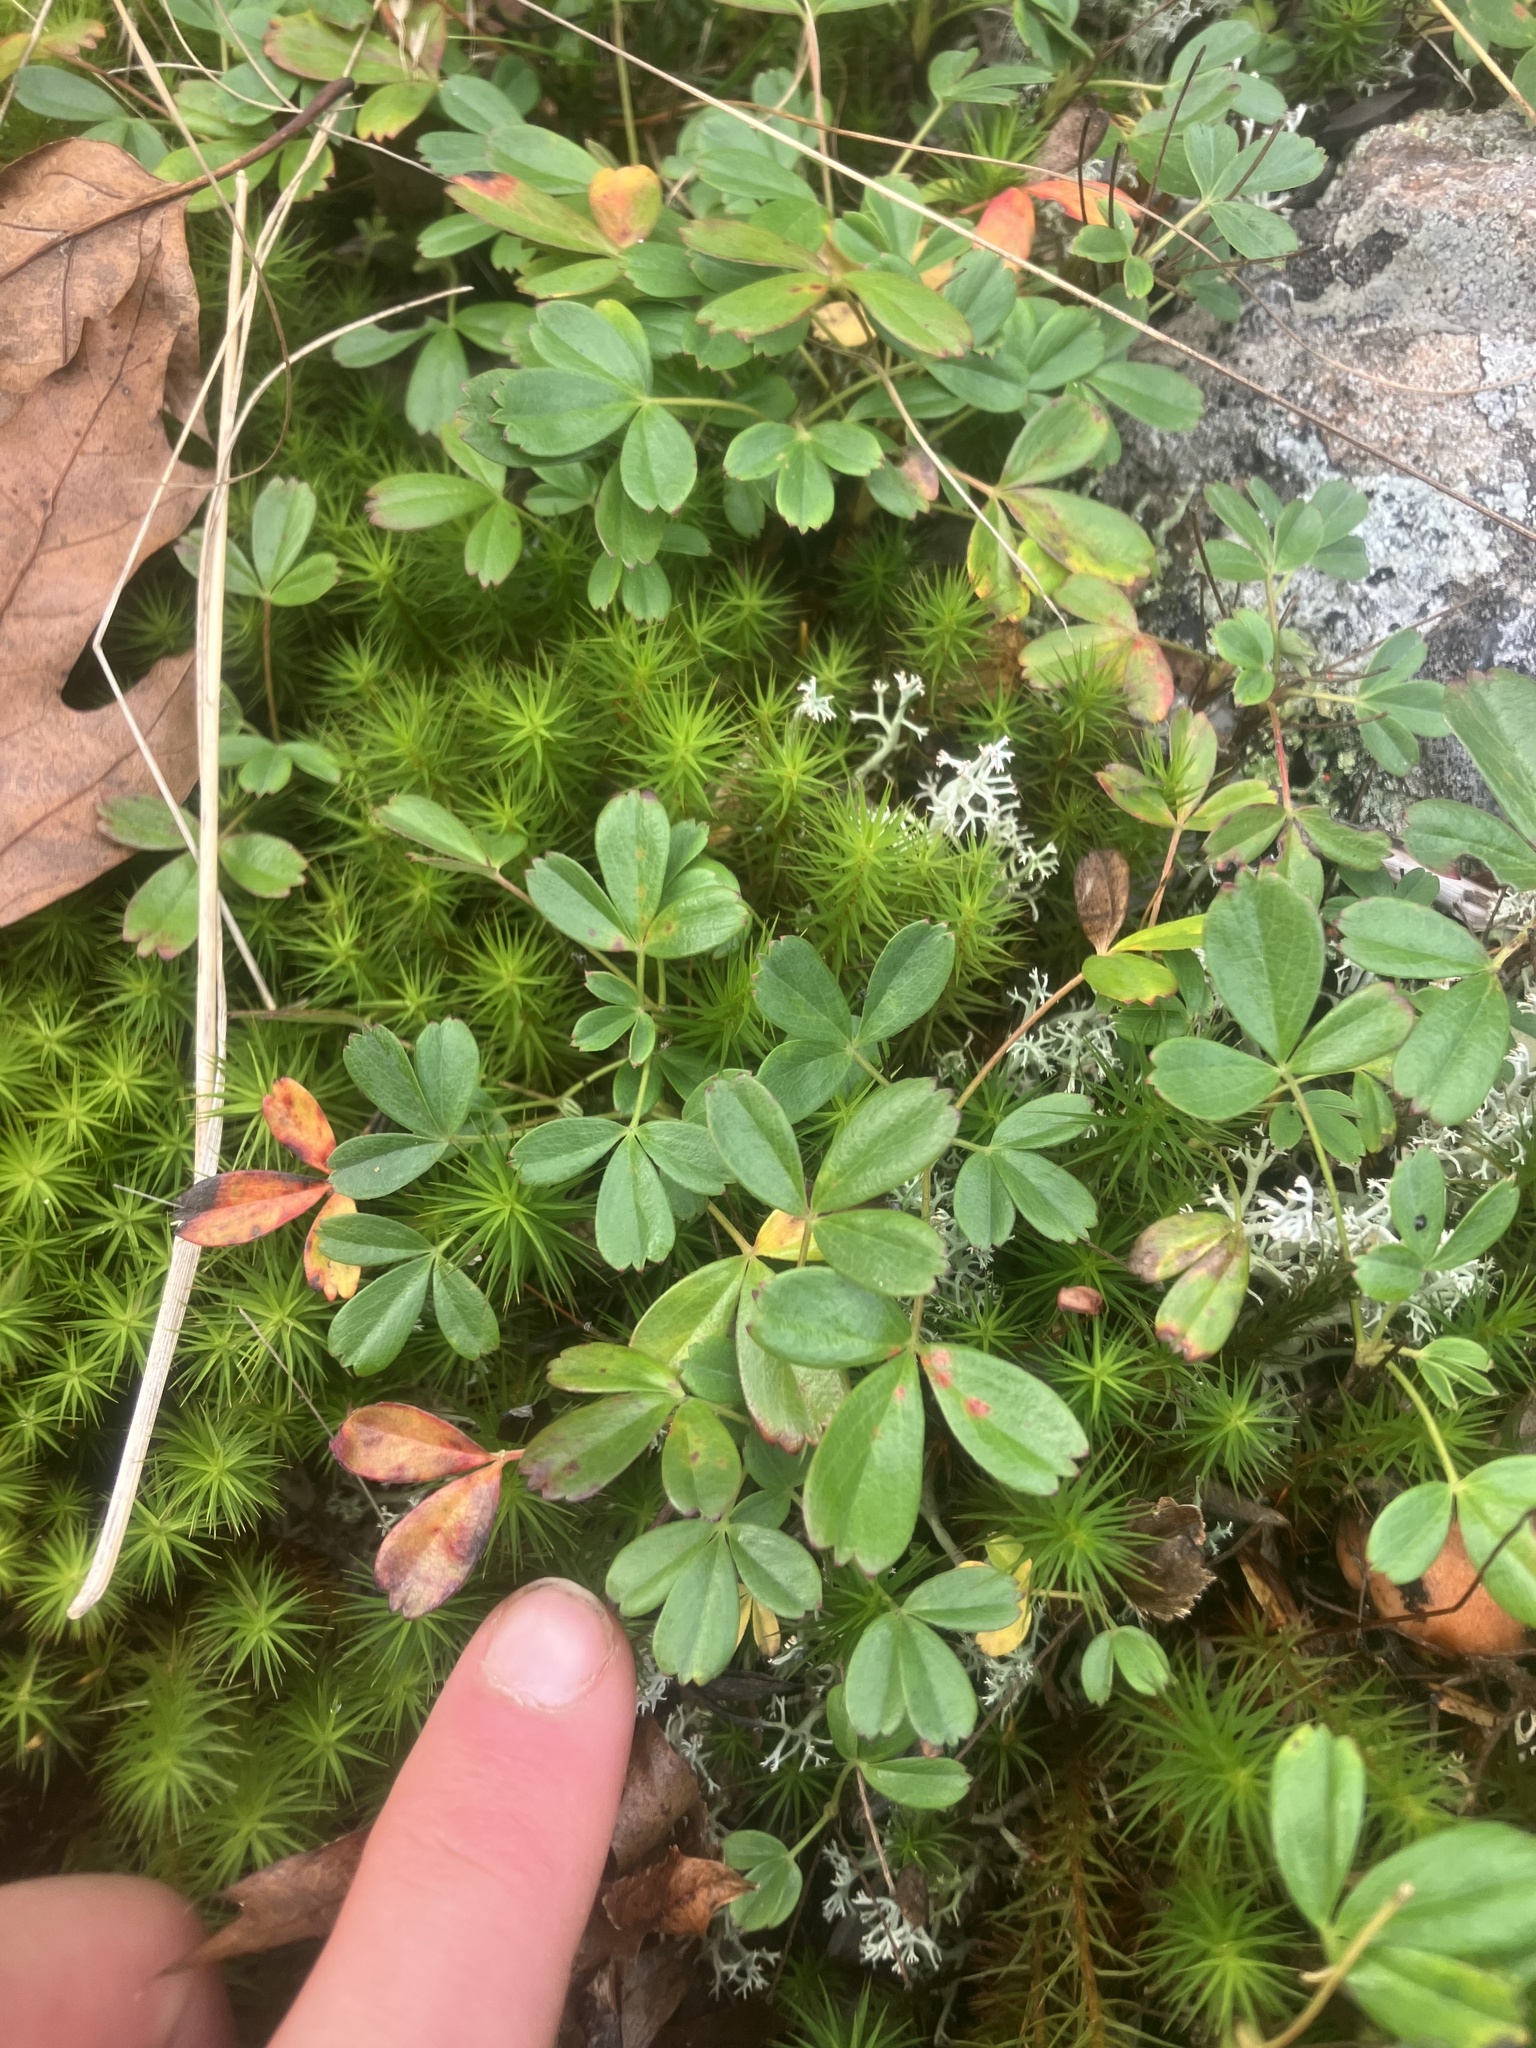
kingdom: Plantae
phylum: Tracheophyta
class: Magnoliopsida
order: Rosales
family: Rosaceae
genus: Sibbaldia
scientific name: Sibbaldia tridentata
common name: Three-toothed cinquefoil
